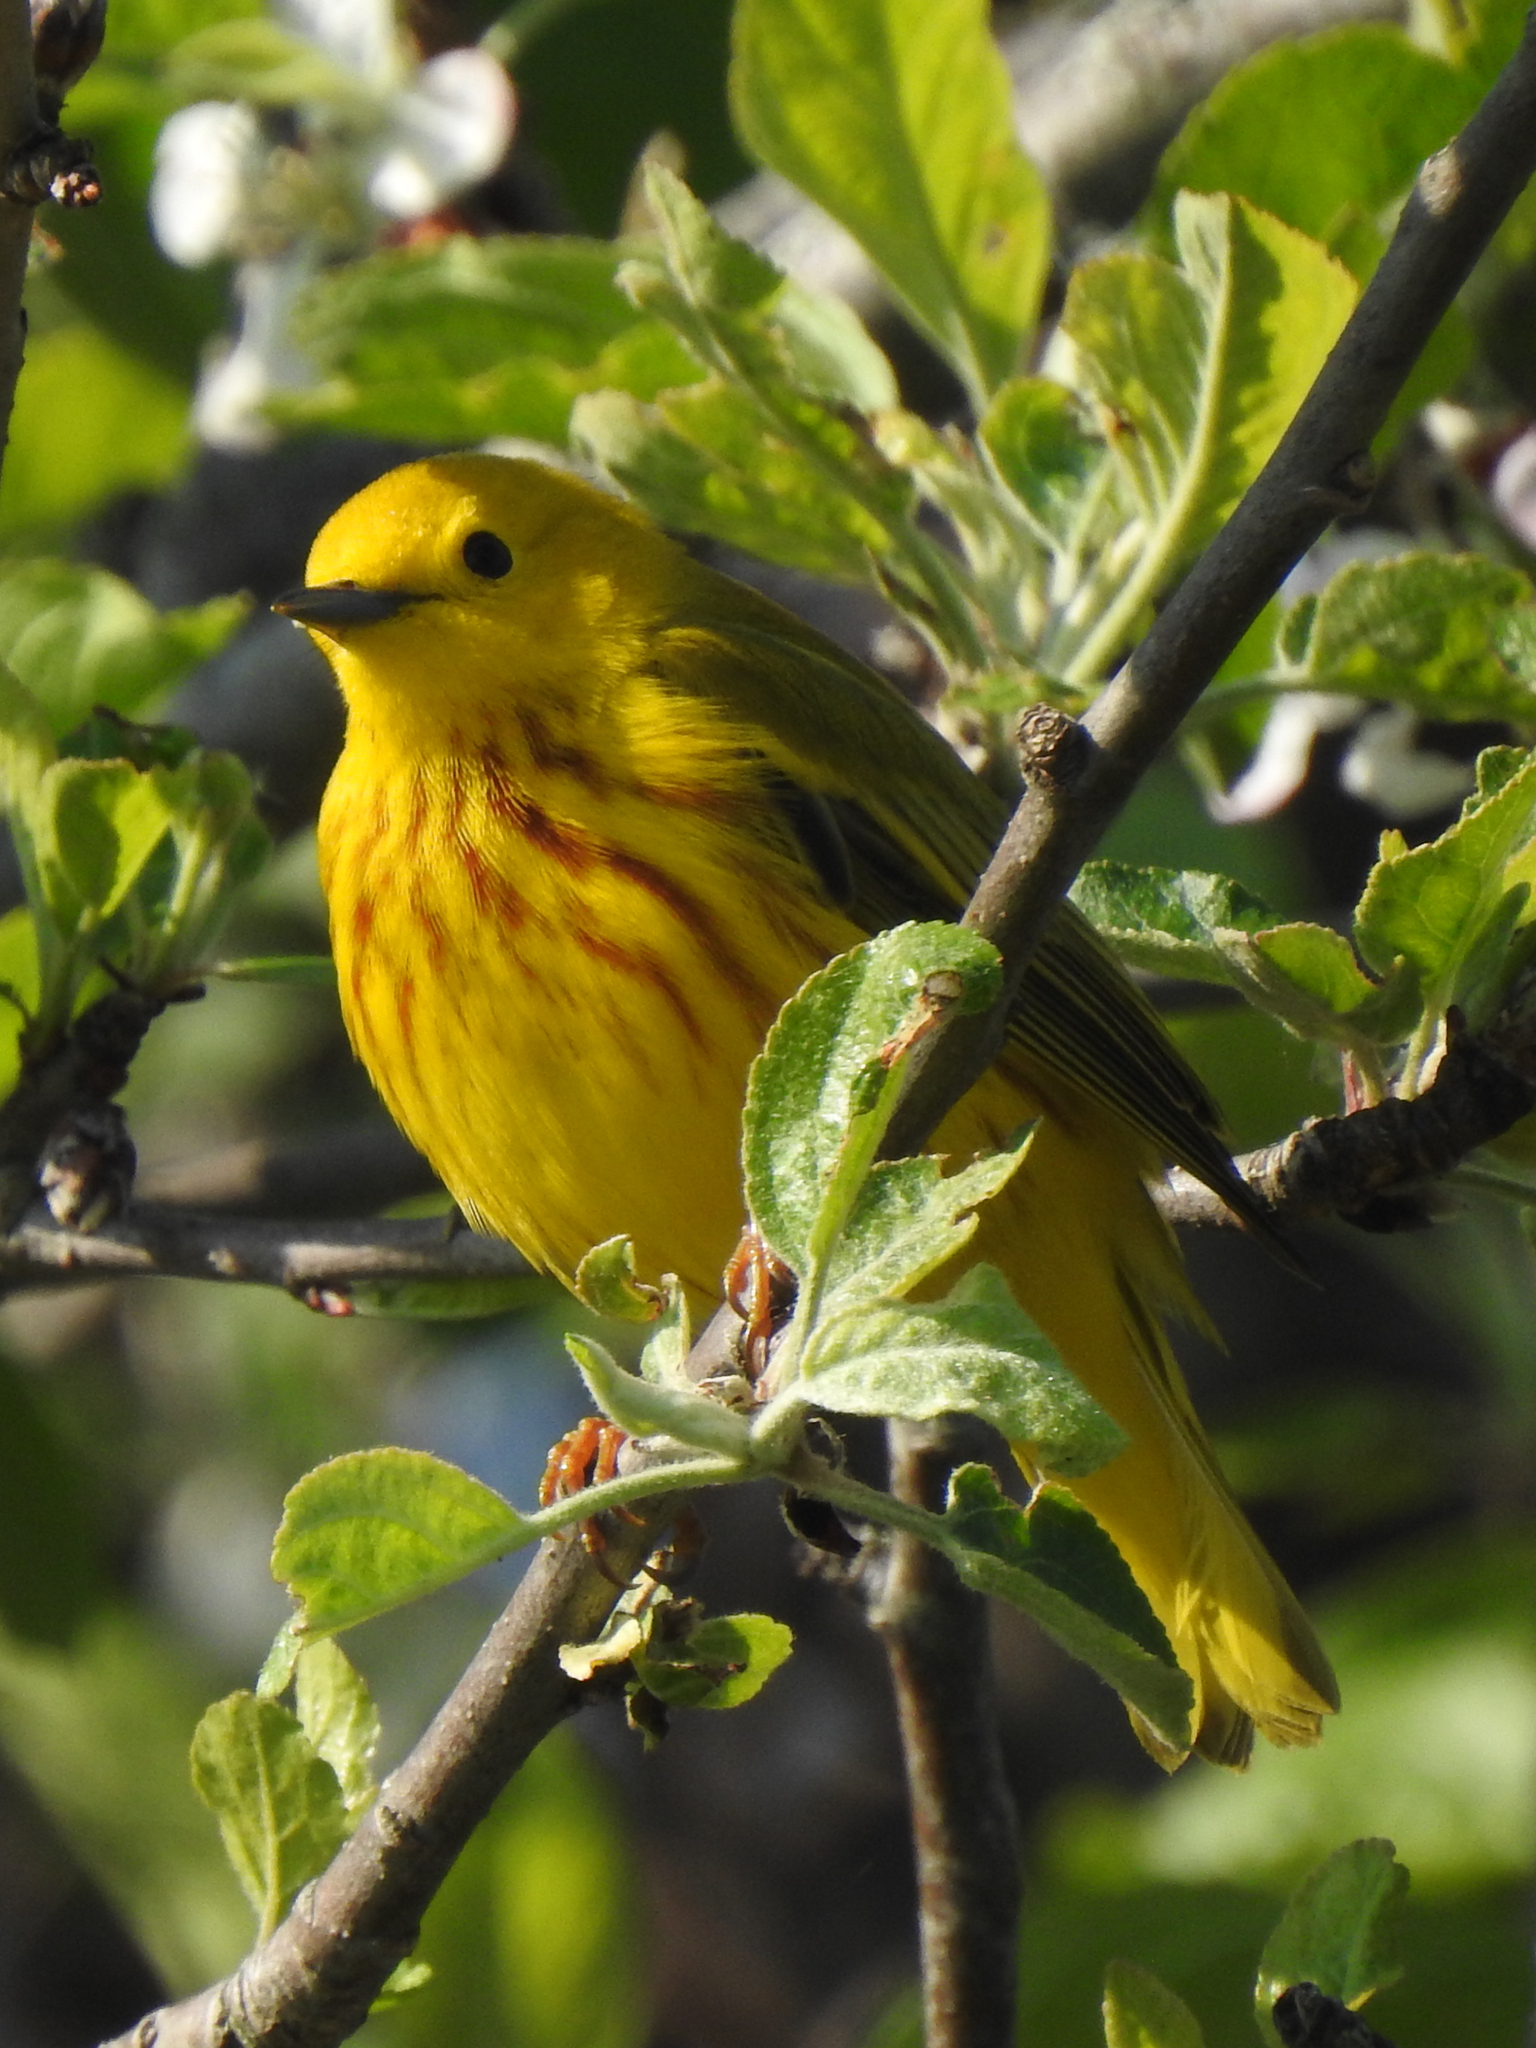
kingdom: Animalia
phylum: Chordata
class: Aves
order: Passeriformes
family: Parulidae
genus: Setophaga
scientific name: Setophaga petechia
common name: Yellow warbler
